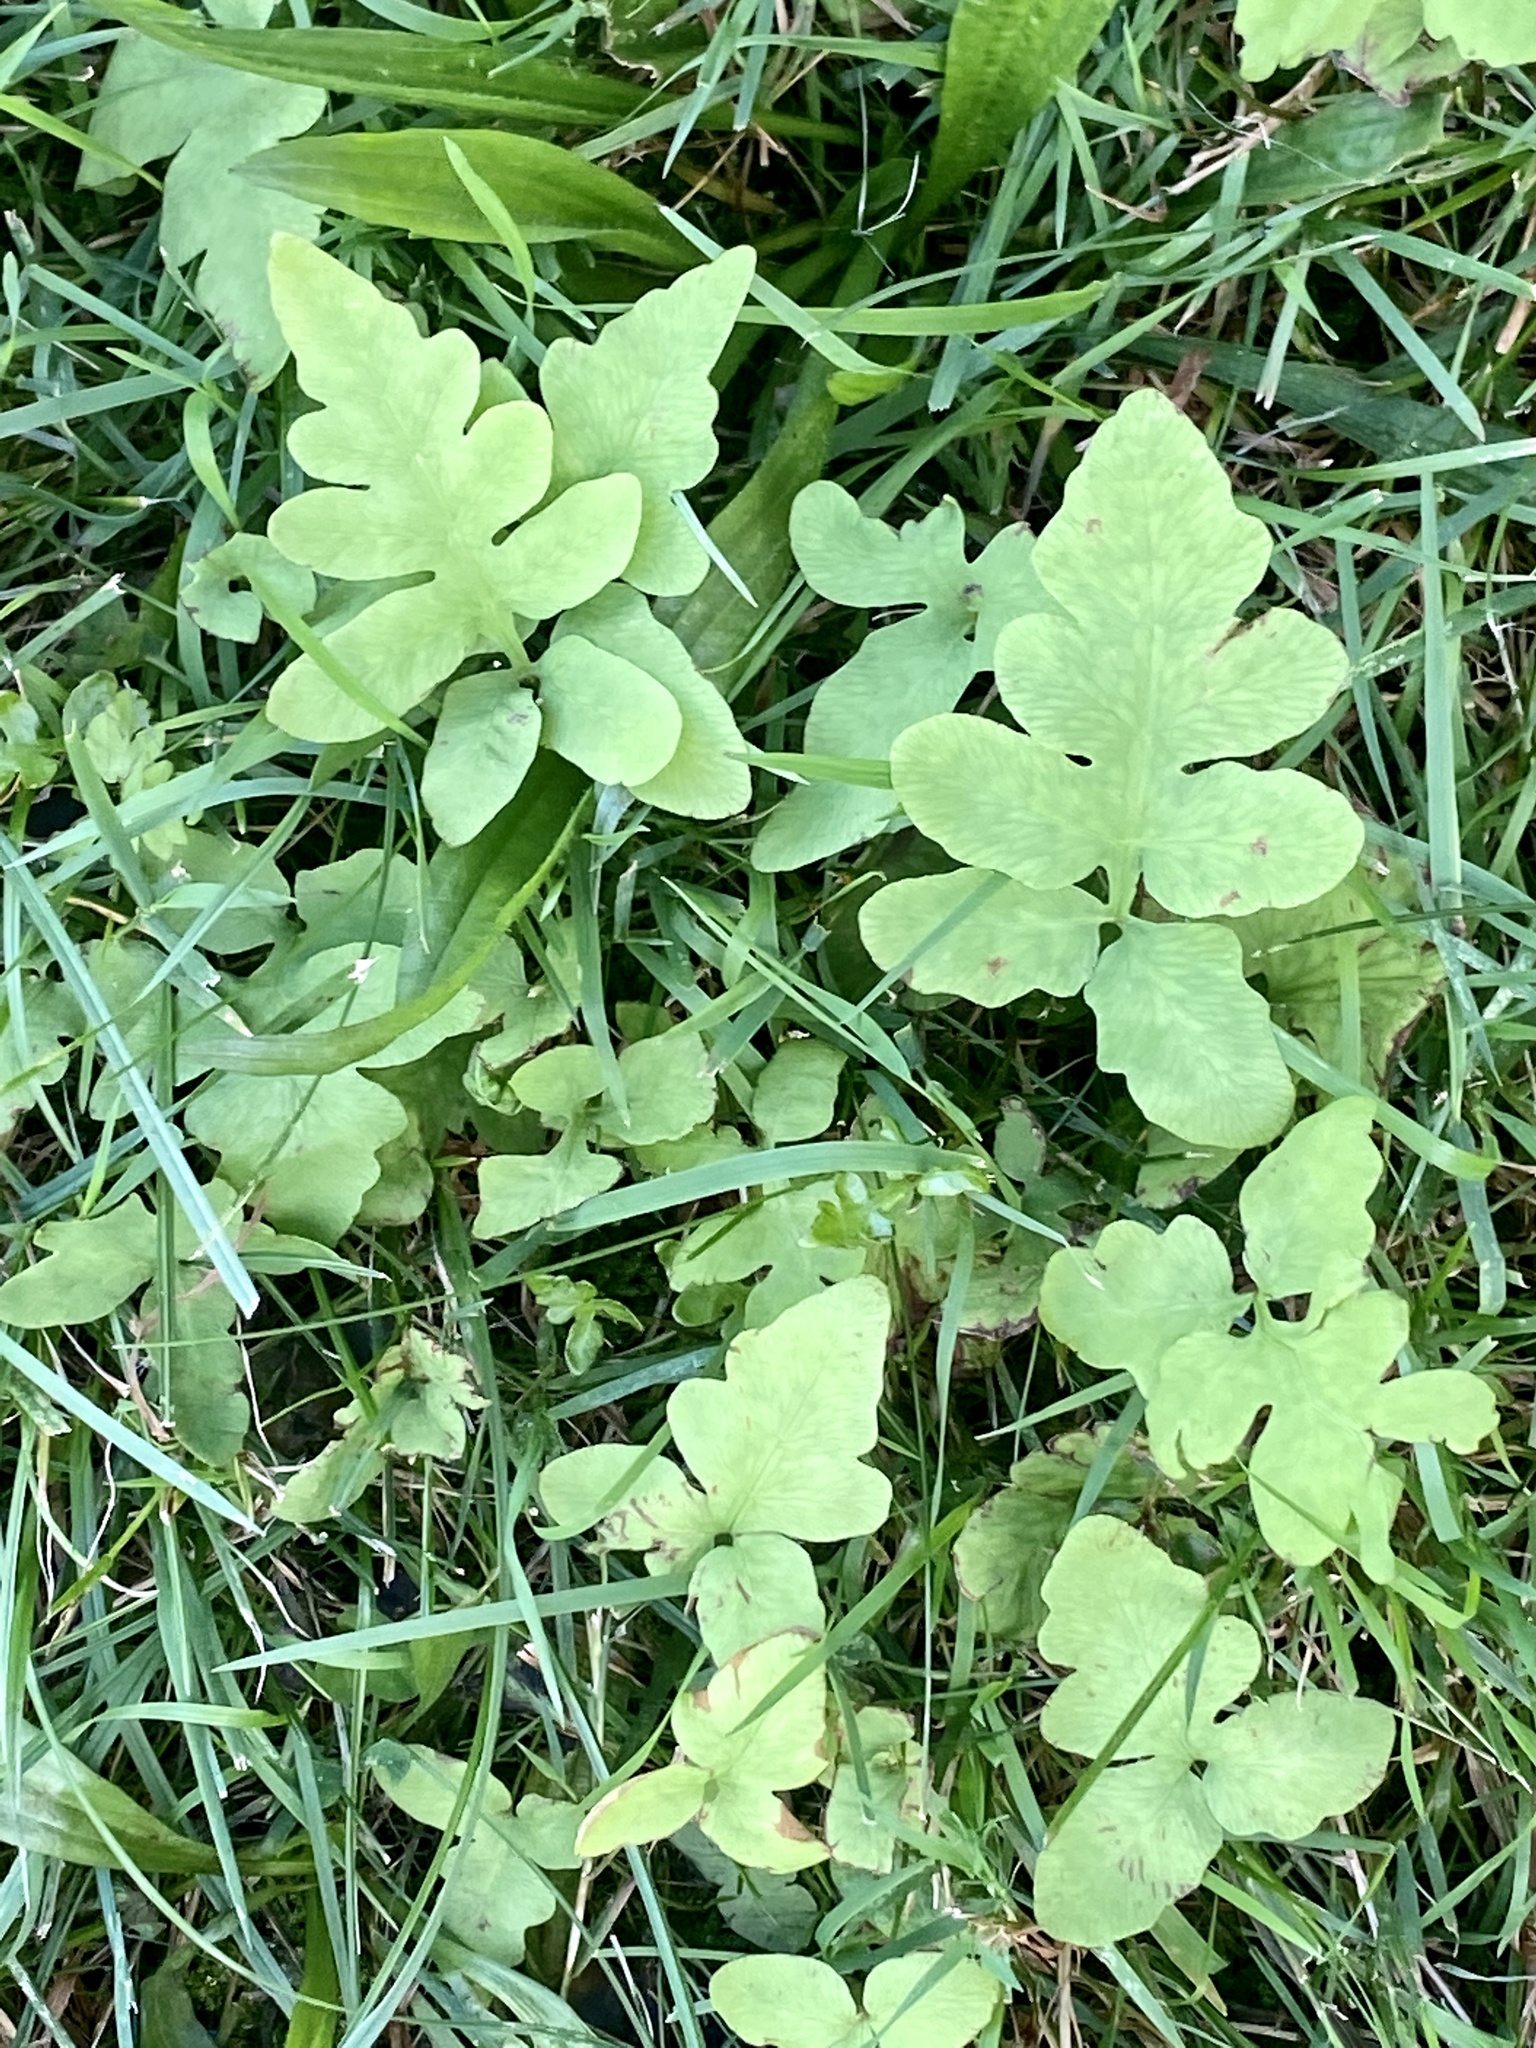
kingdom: Plantae
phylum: Tracheophyta
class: Polypodiopsida
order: Polypodiales
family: Onocleaceae
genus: Onoclea
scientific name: Onoclea sensibilis
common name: Sensitive fern
